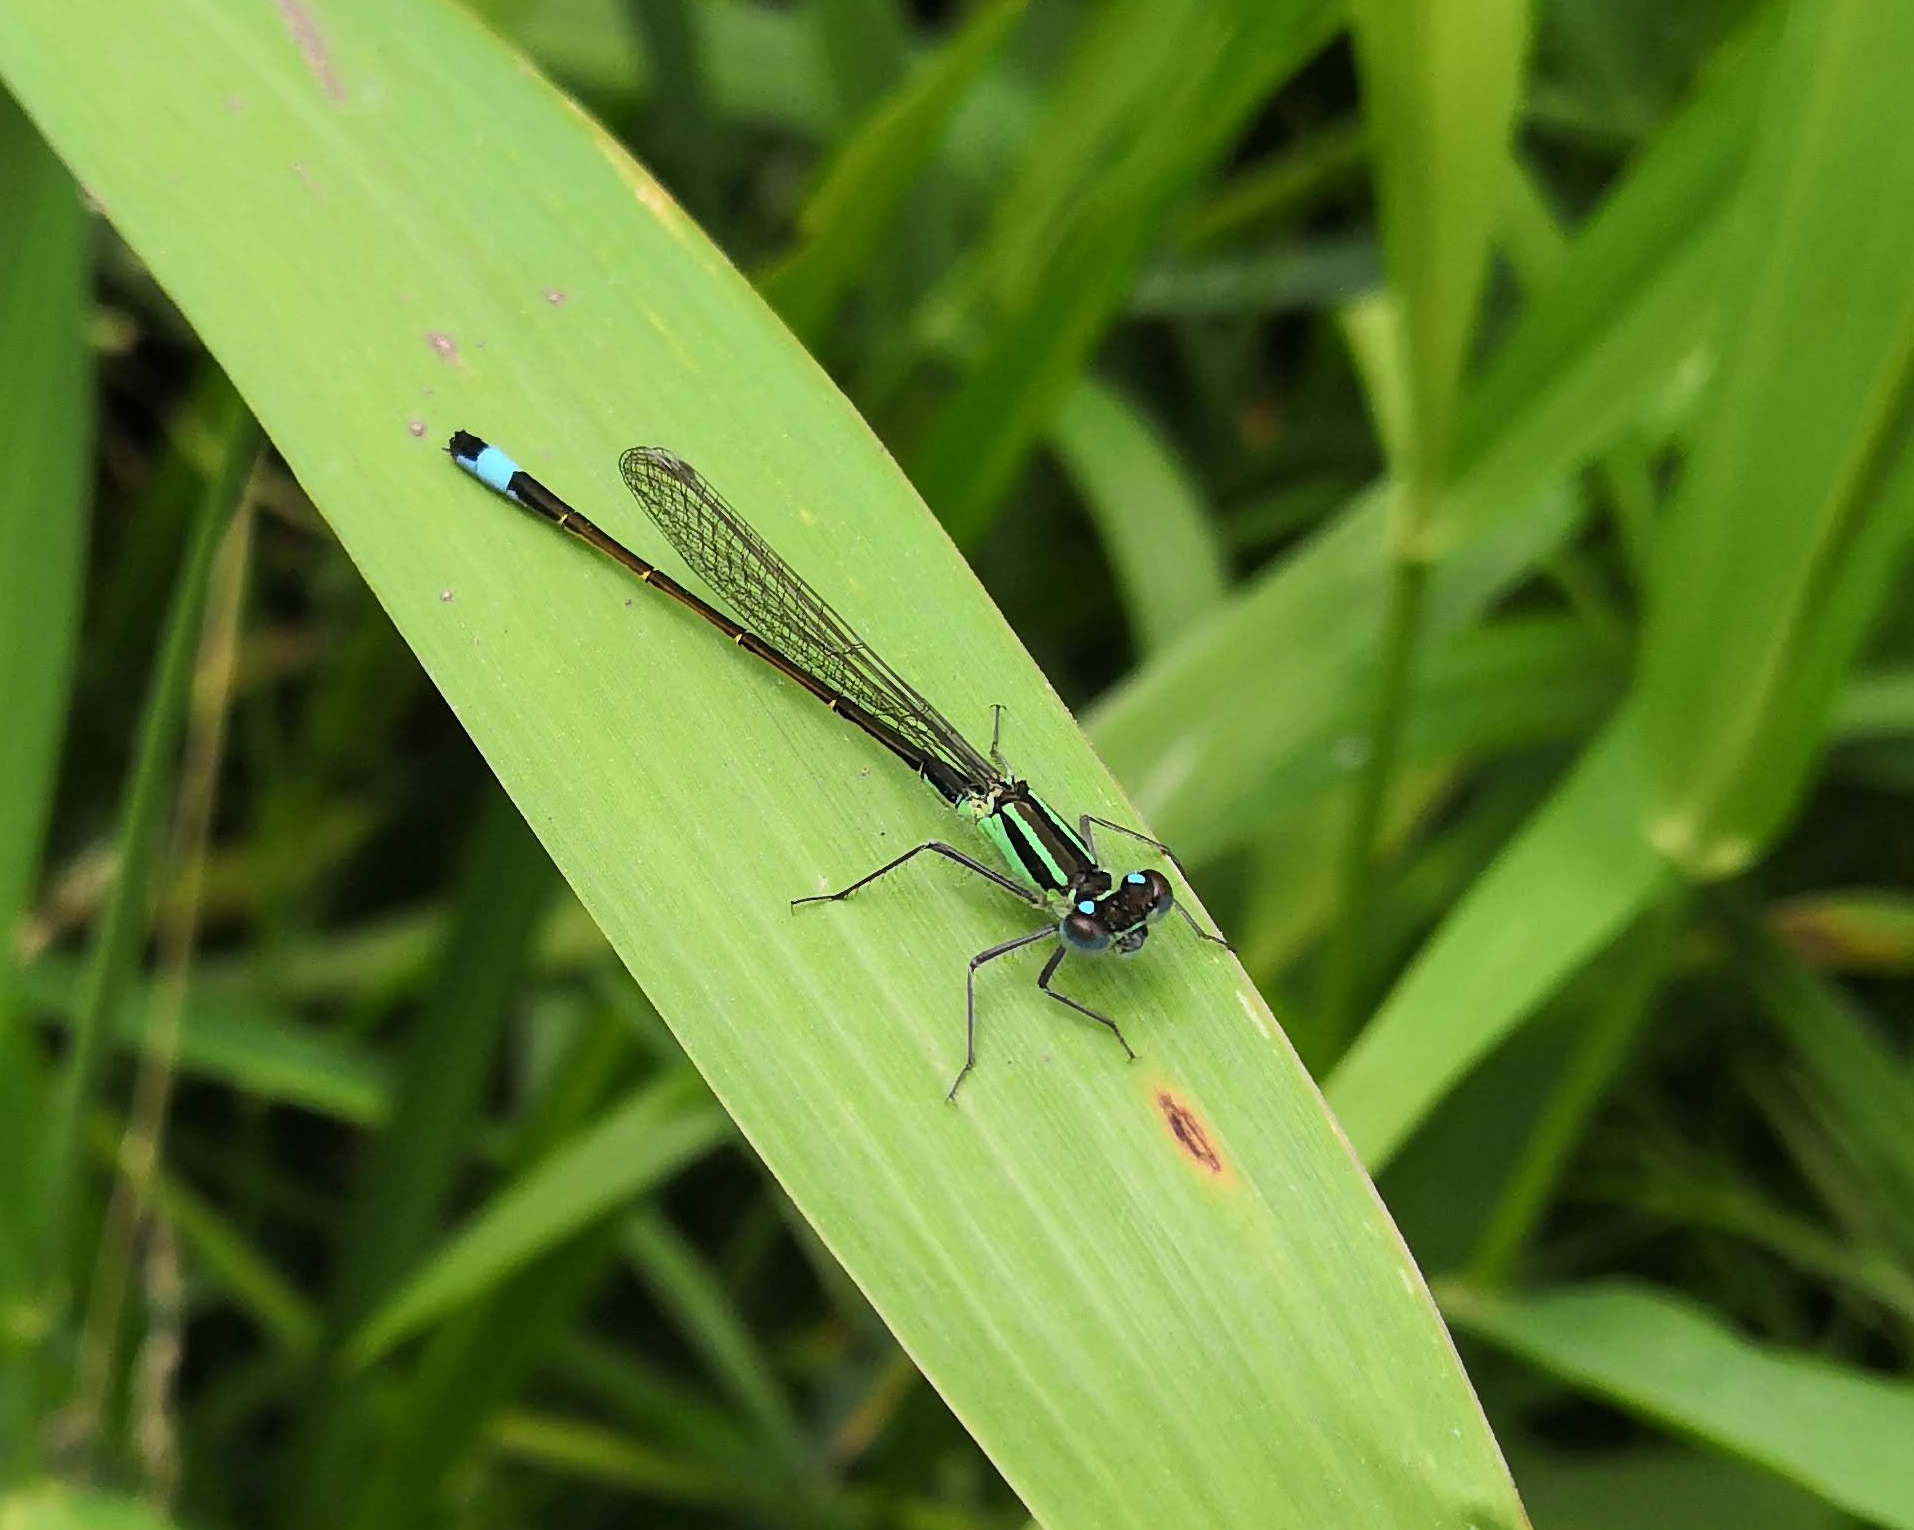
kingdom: Animalia
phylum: Arthropoda
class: Insecta
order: Odonata
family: Coenagrionidae
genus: Ischnura
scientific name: Ischnura elegans
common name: Blue-tailed damselfly
